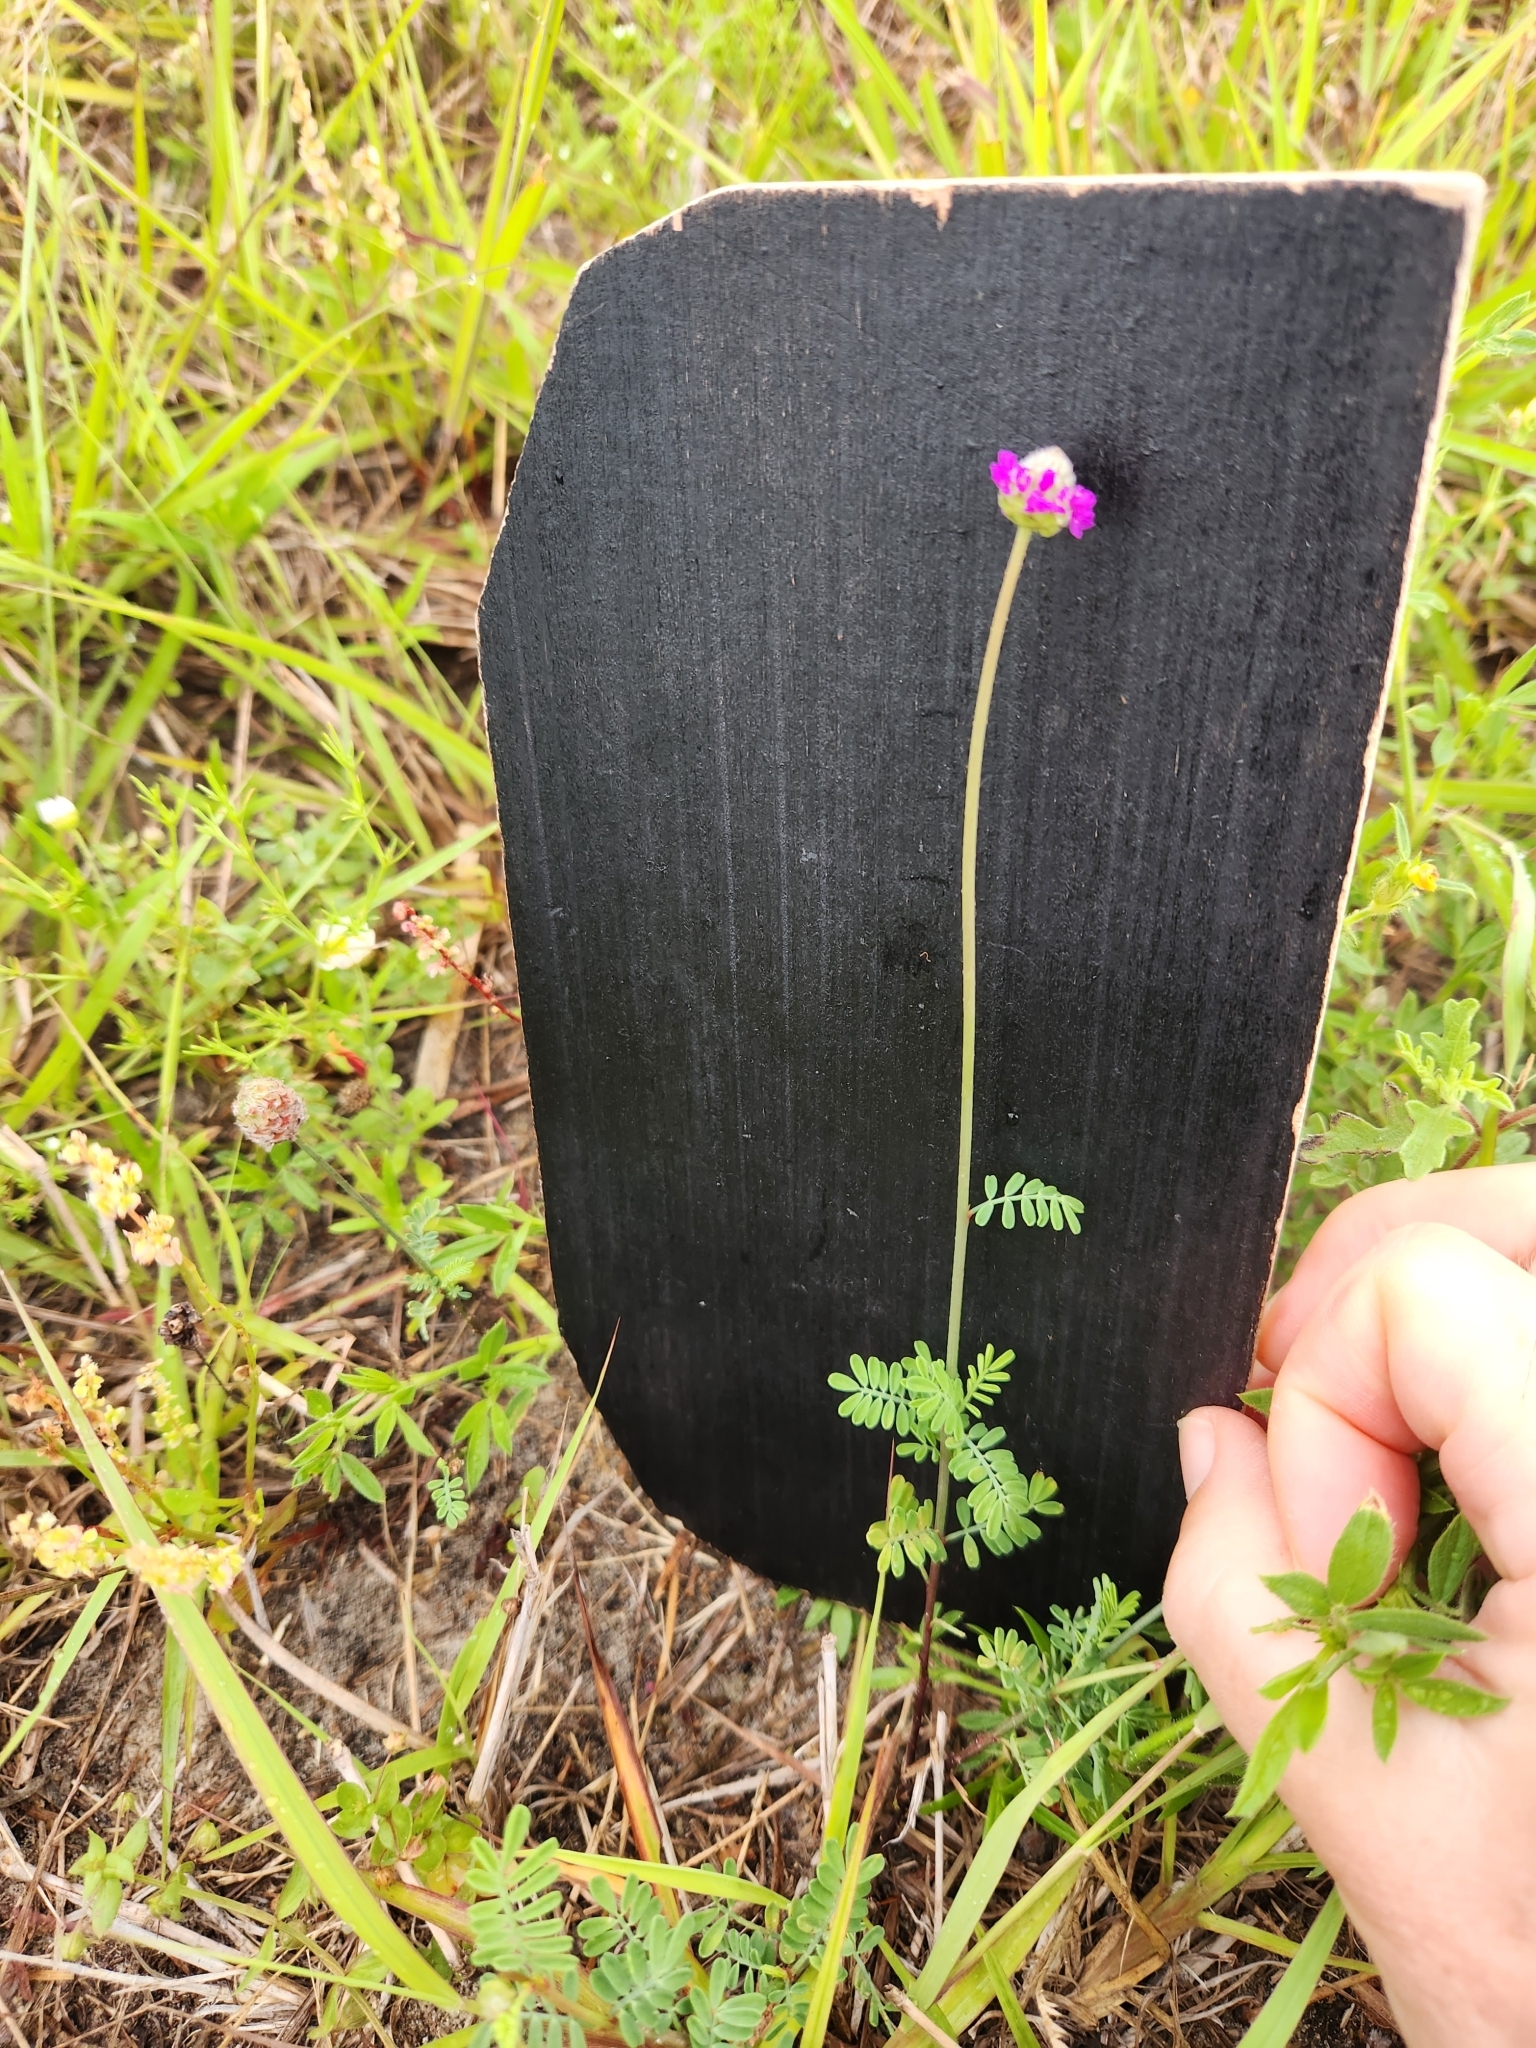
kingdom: Plantae
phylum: Tracheophyta
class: Magnoliopsida
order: Fabales
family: Fabaceae
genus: Dalea
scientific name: Dalea emarginata
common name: Wedgeleaf prairie clover
